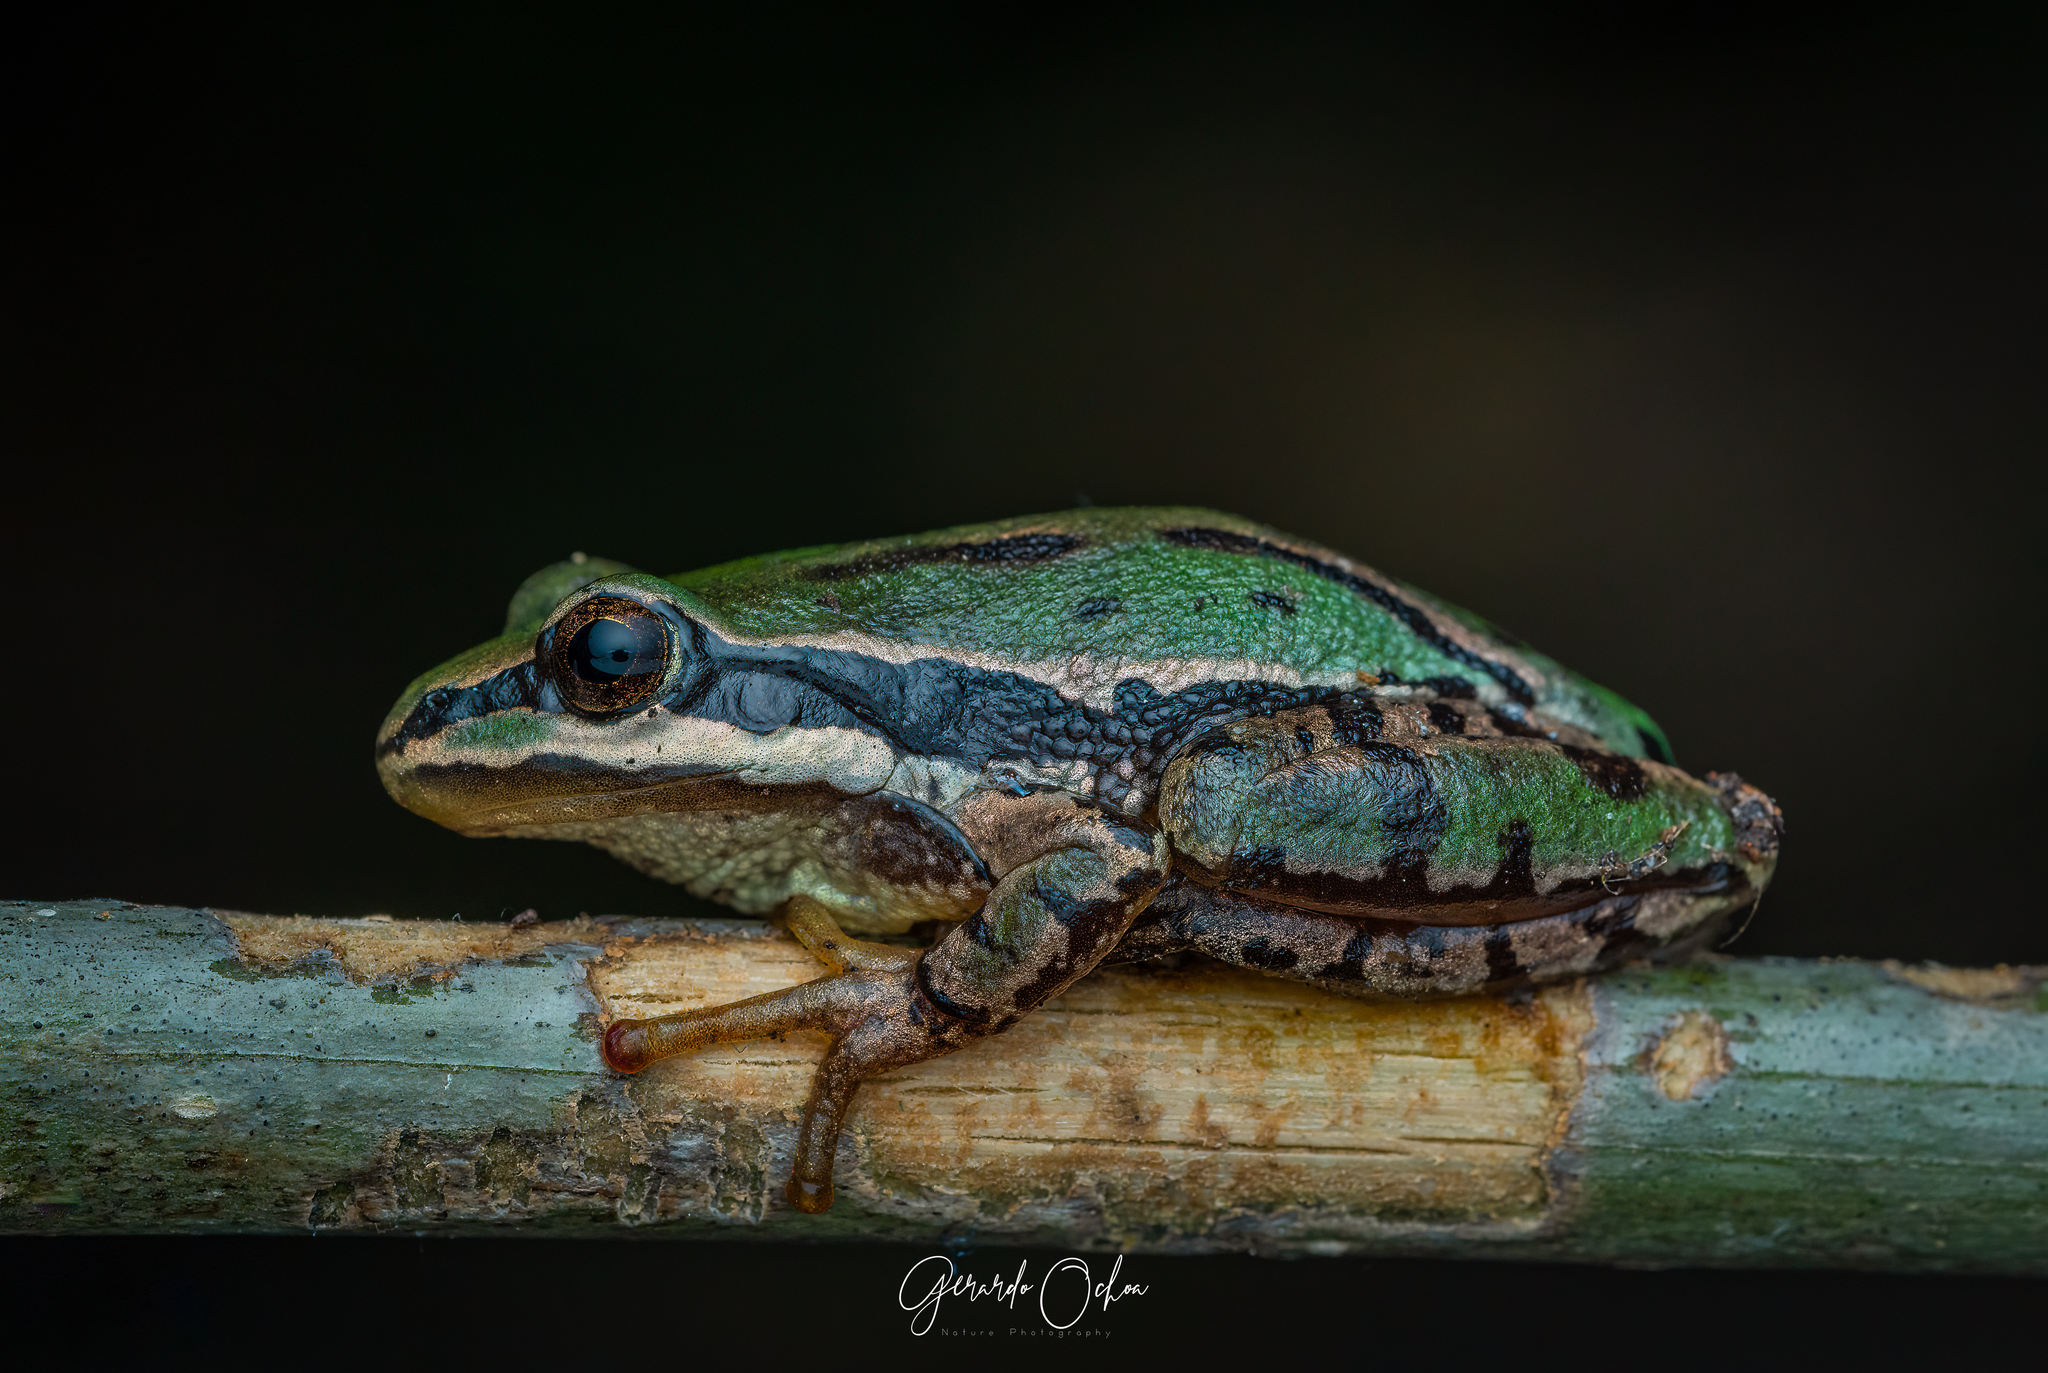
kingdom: Animalia
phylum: Chordata
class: Amphibia
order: Anura
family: Hylidae
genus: Dryophytes
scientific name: Dryophytes eximius
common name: Mountain treefrog
